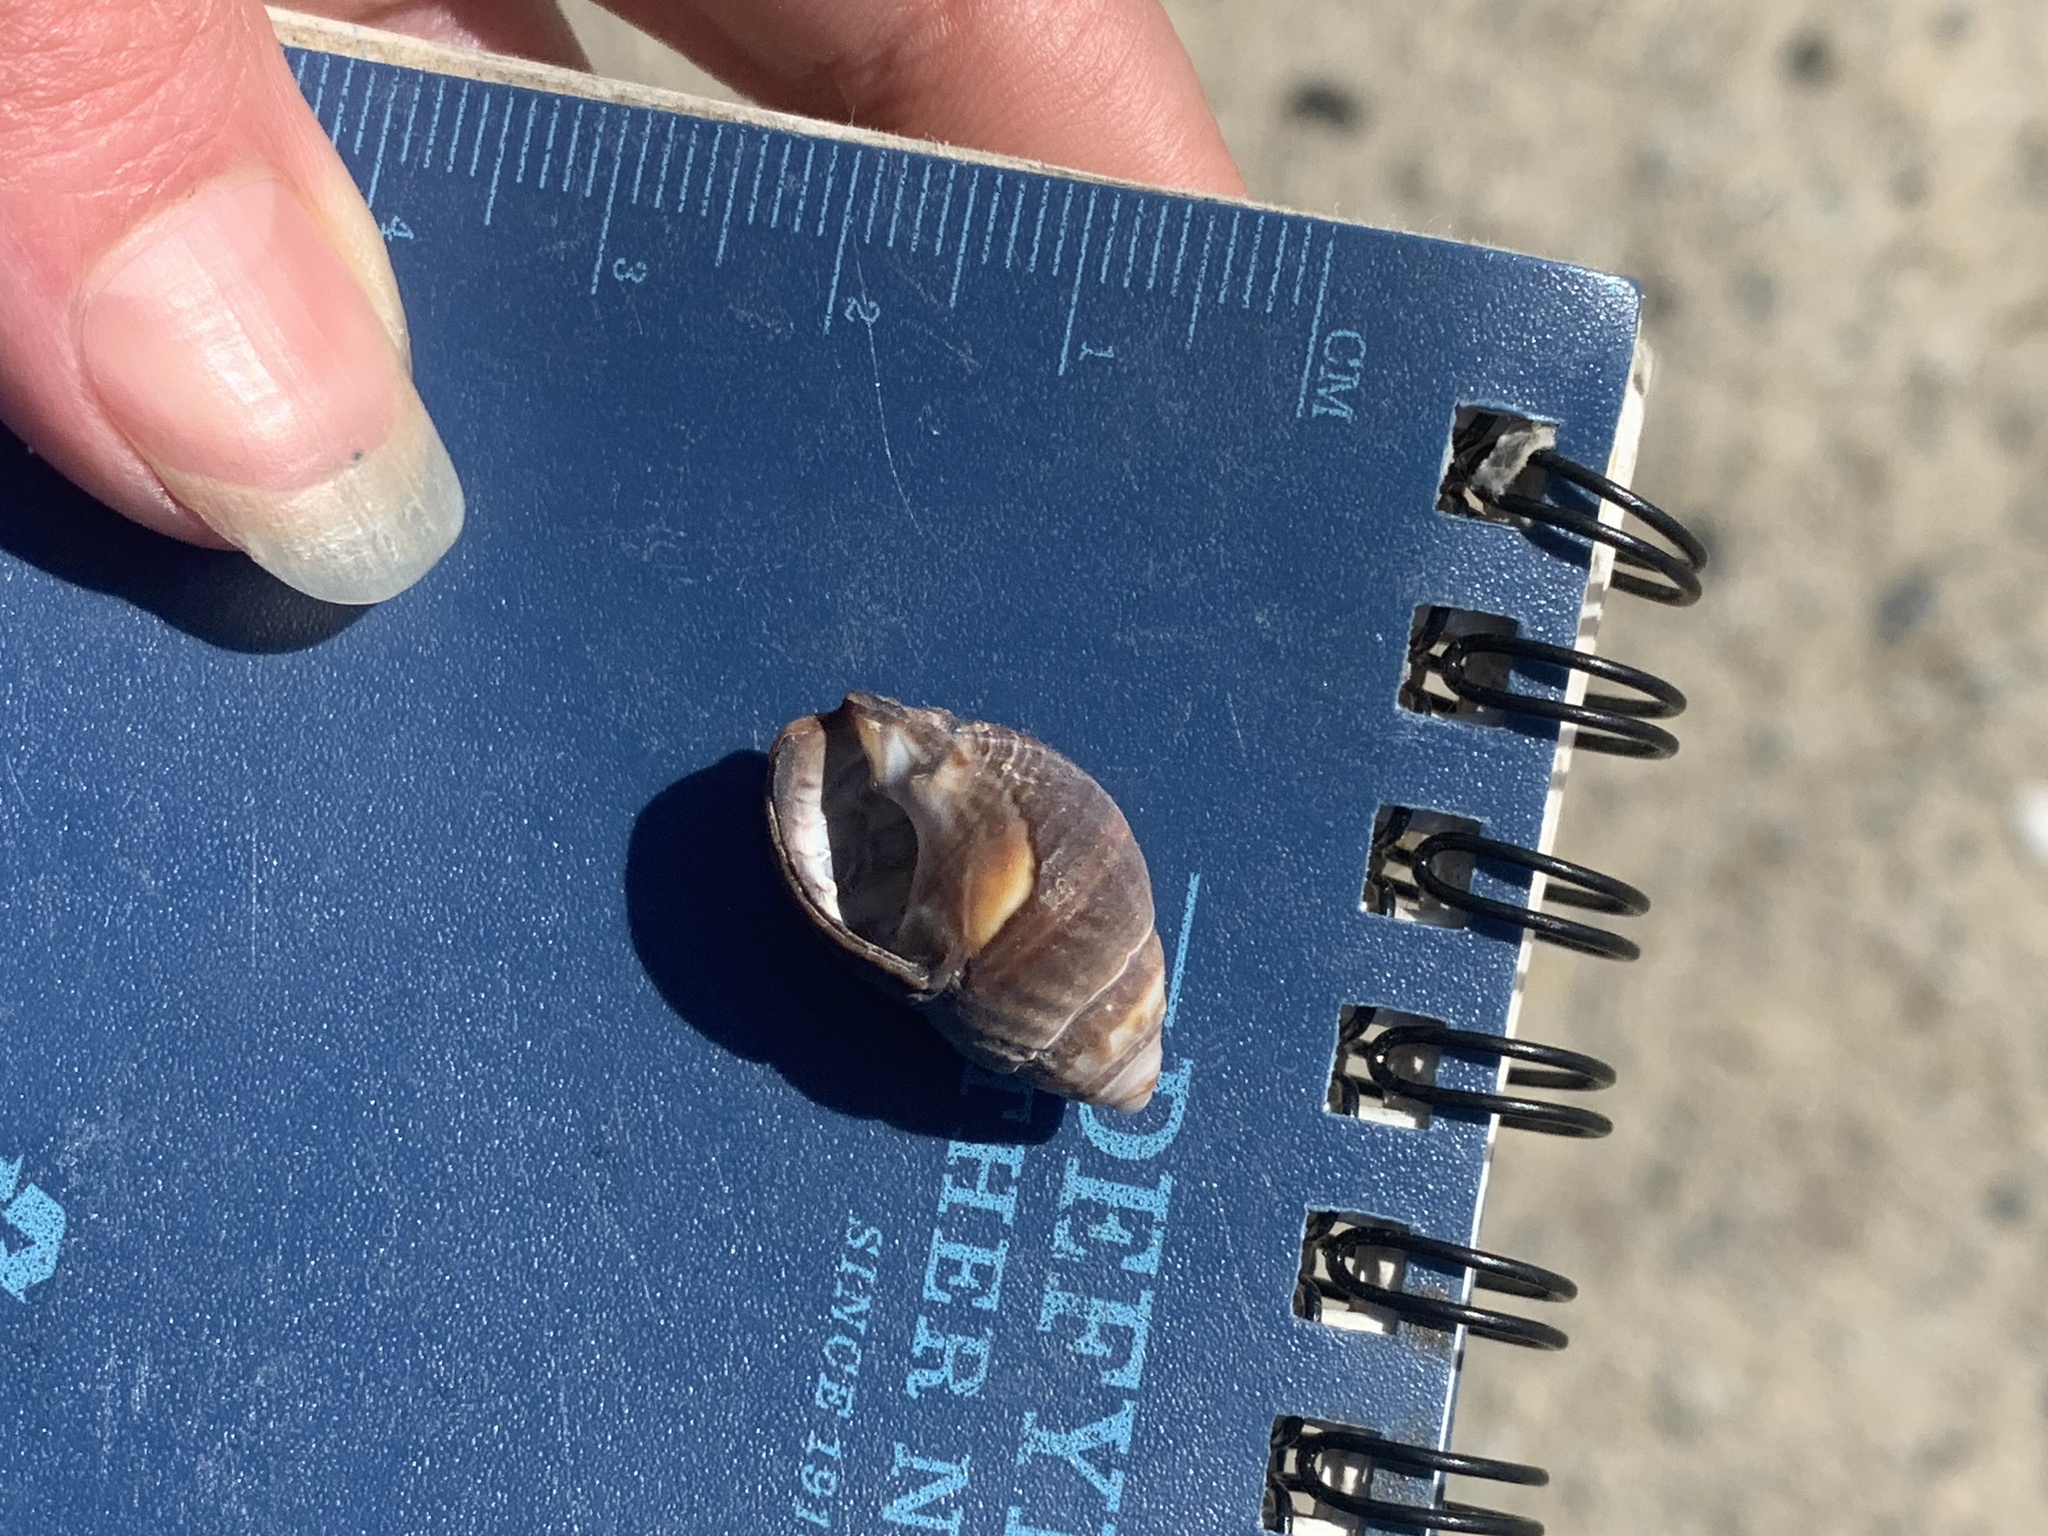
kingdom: Animalia
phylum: Mollusca
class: Gastropoda
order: Neogastropoda
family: Nassariidae
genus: Ilyanassa
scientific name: Ilyanassa obsoleta
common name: Eastern mudsnail
